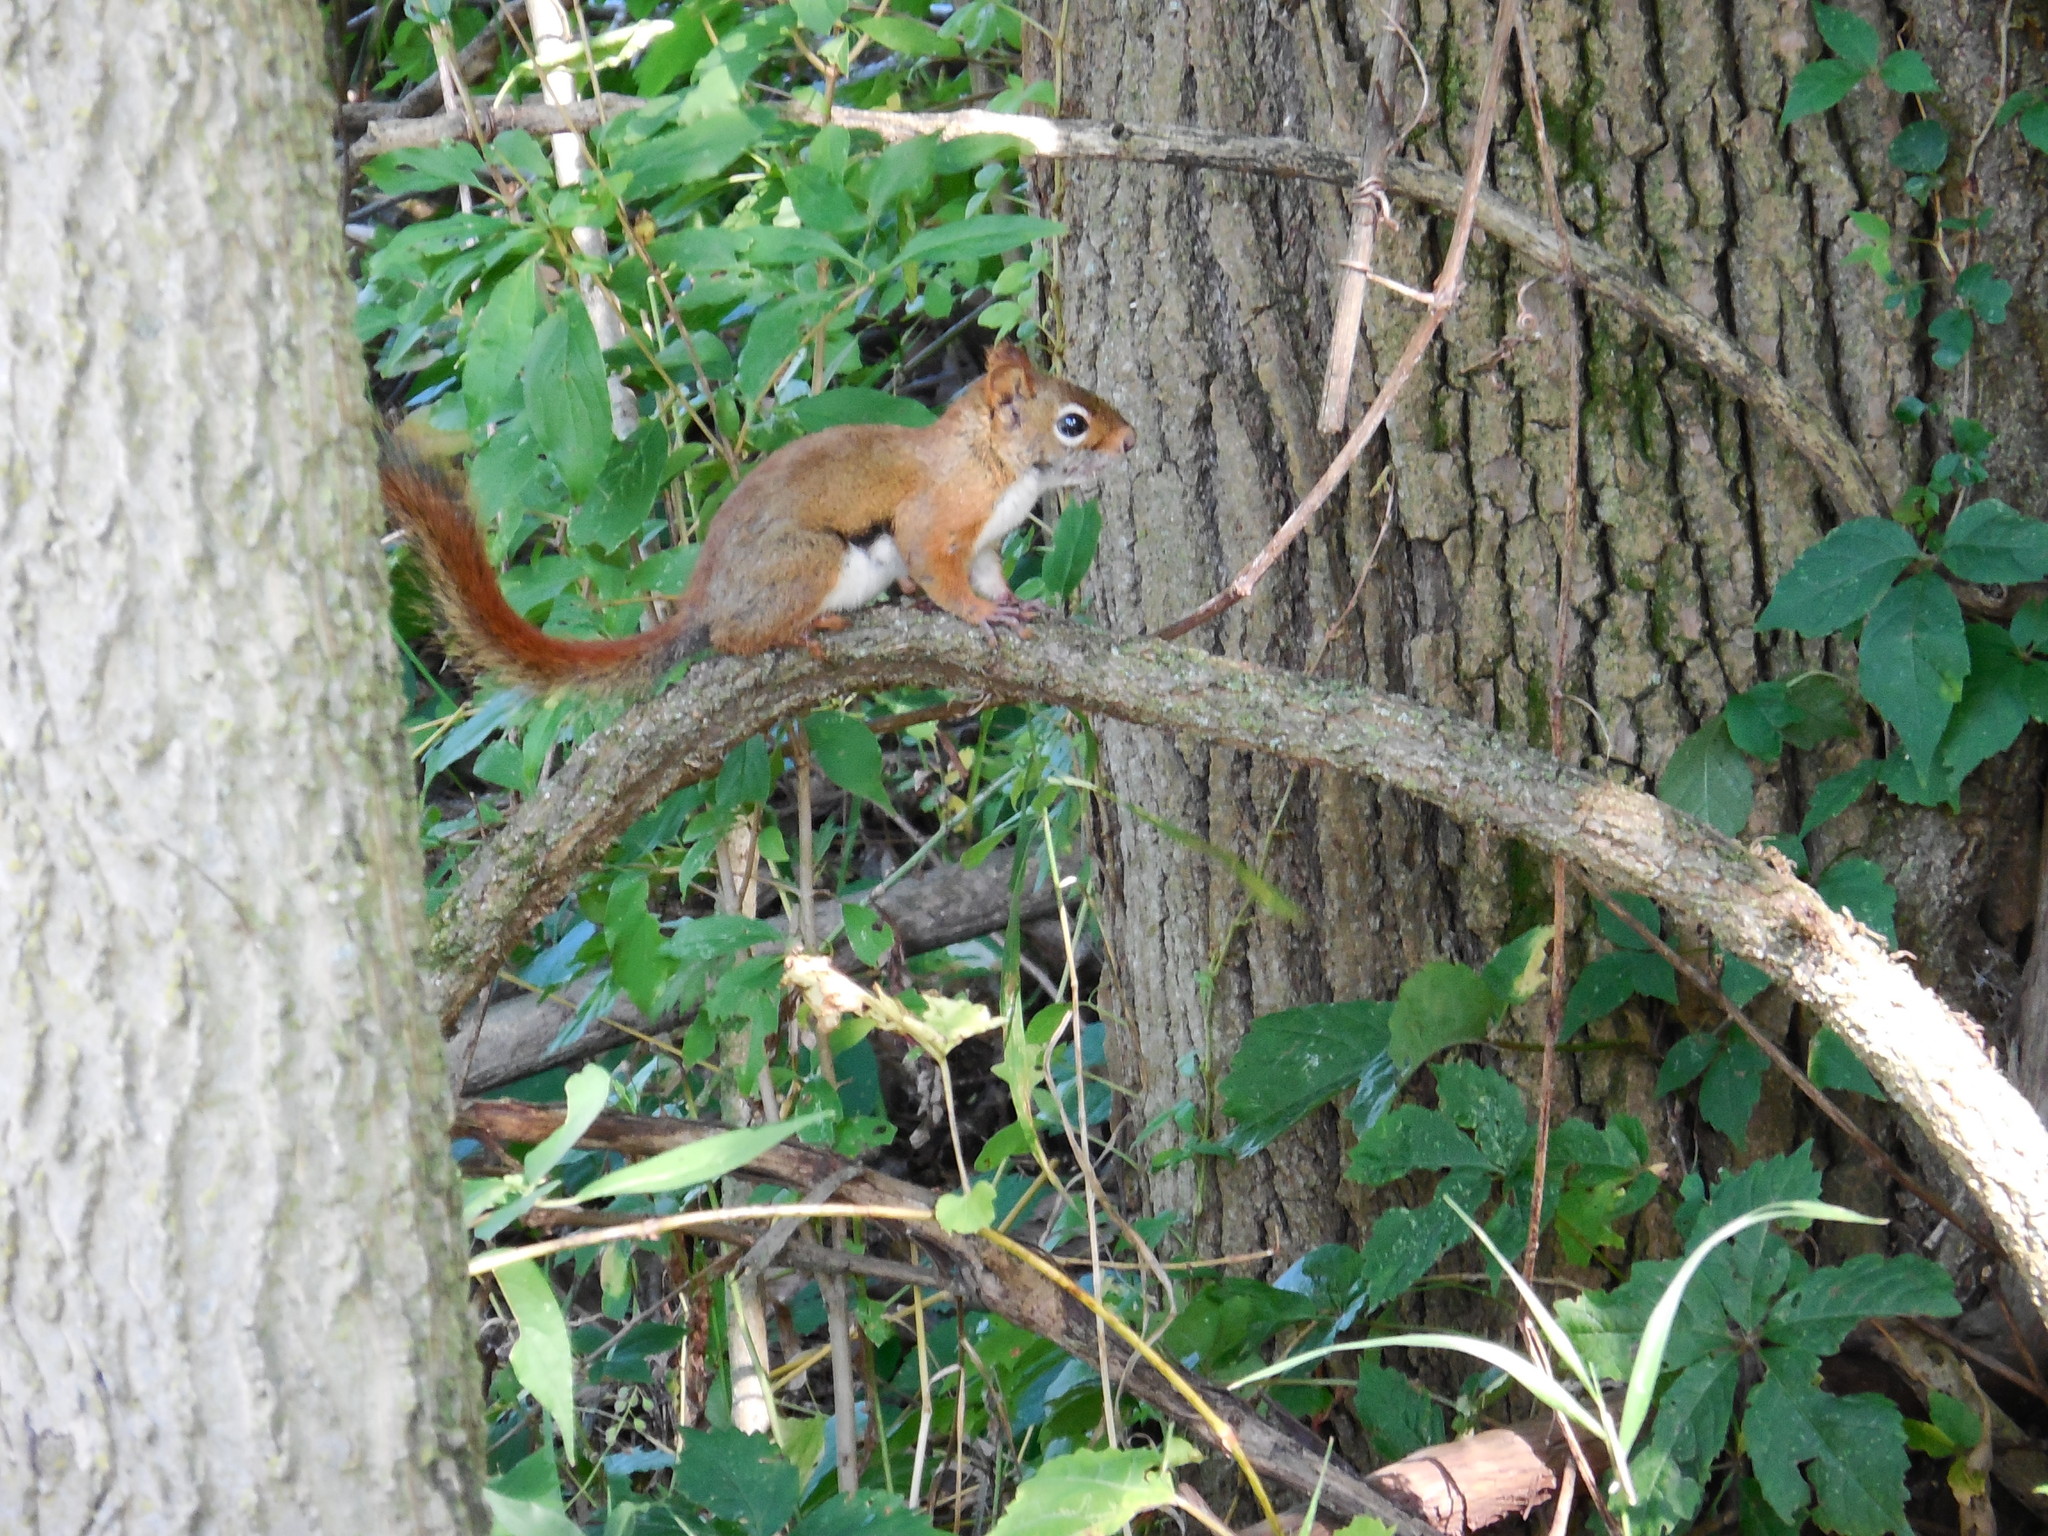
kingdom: Animalia
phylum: Chordata
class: Mammalia
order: Rodentia
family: Sciuridae
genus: Tamiasciurus
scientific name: Tamiasciurus hudsonicus
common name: Red squirrel
